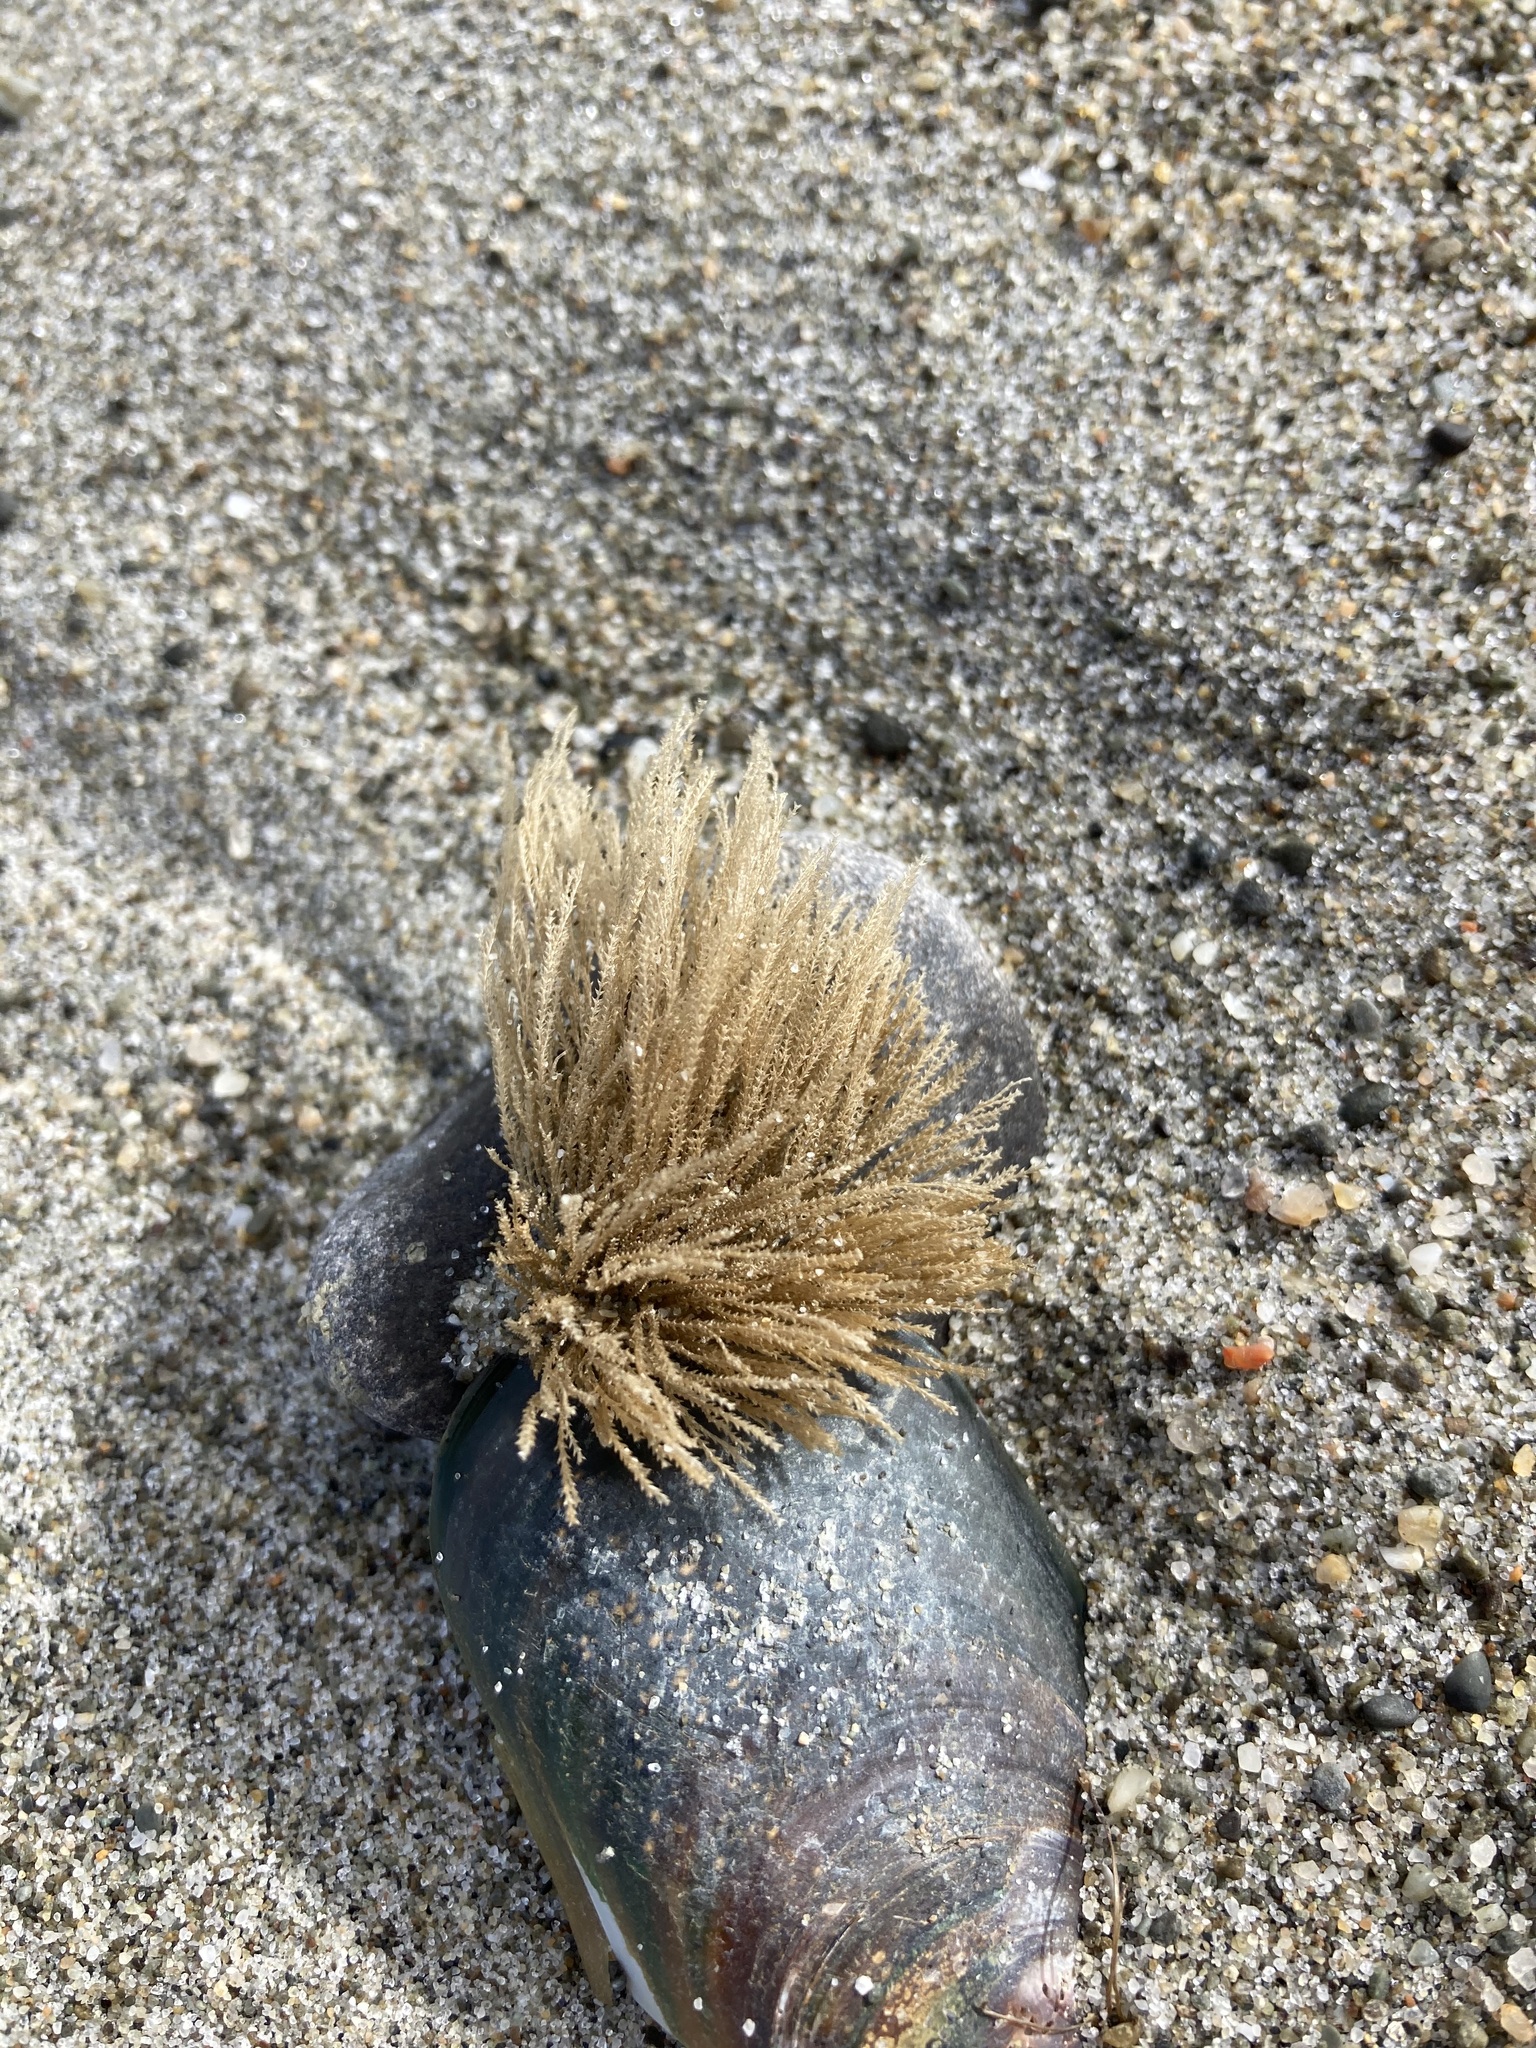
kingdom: Animalia
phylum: Cnidaria
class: Hydrozoa
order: Leptothecata
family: Sertulariidae
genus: Amphisbetia
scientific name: Amphisbetia bispinosa
